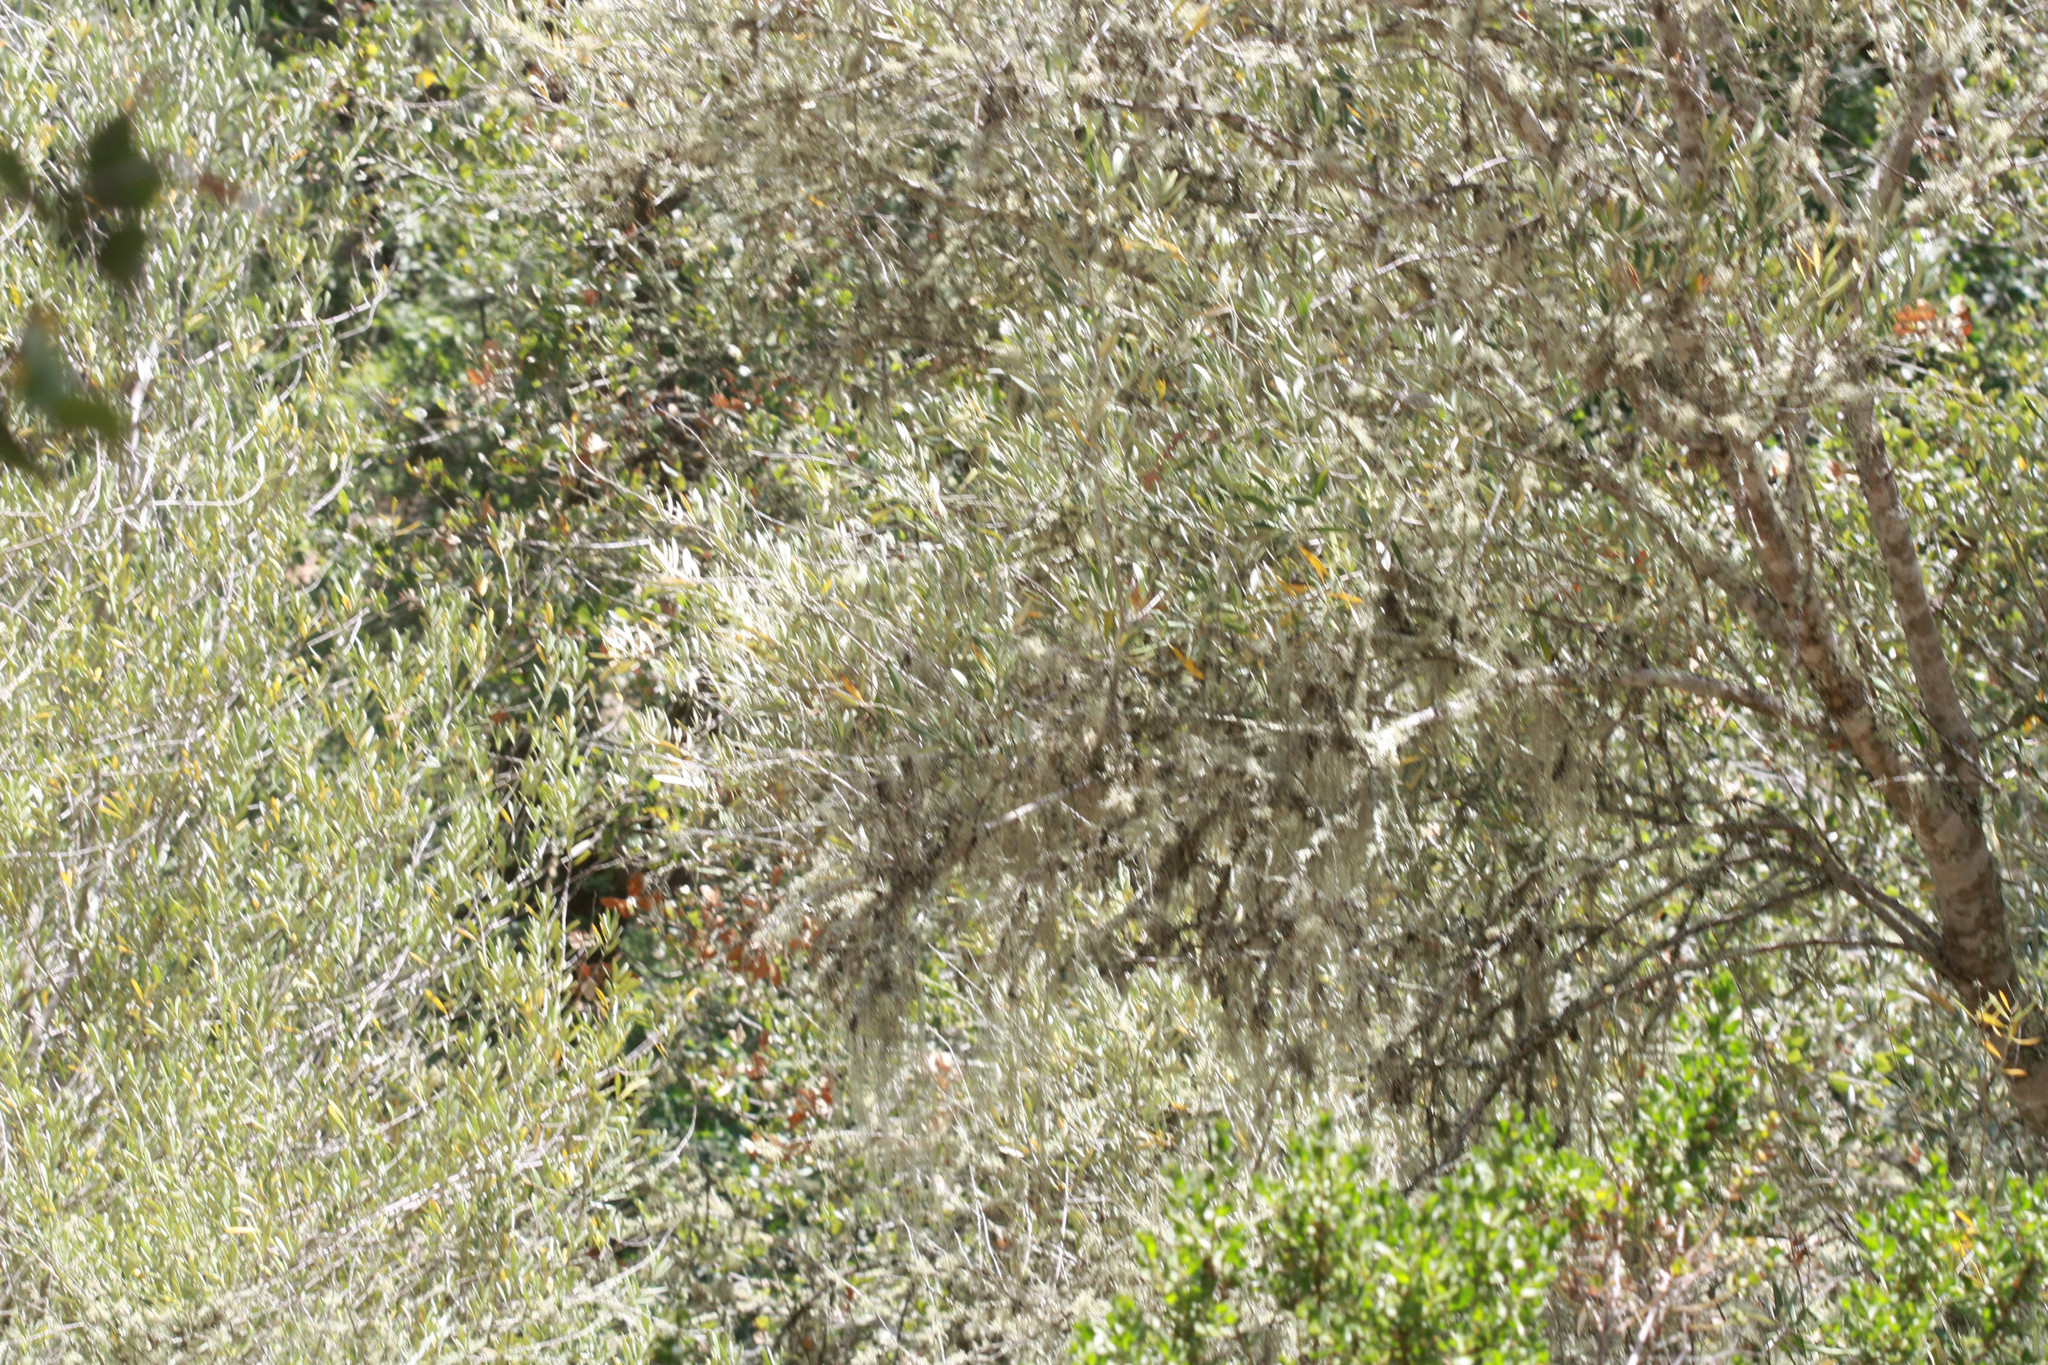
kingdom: Plantae
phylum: Tracheophyta
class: Magnoliopsida
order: Lamiales
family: Oleaceae
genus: Olea
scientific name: Olea europaea
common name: Olive
